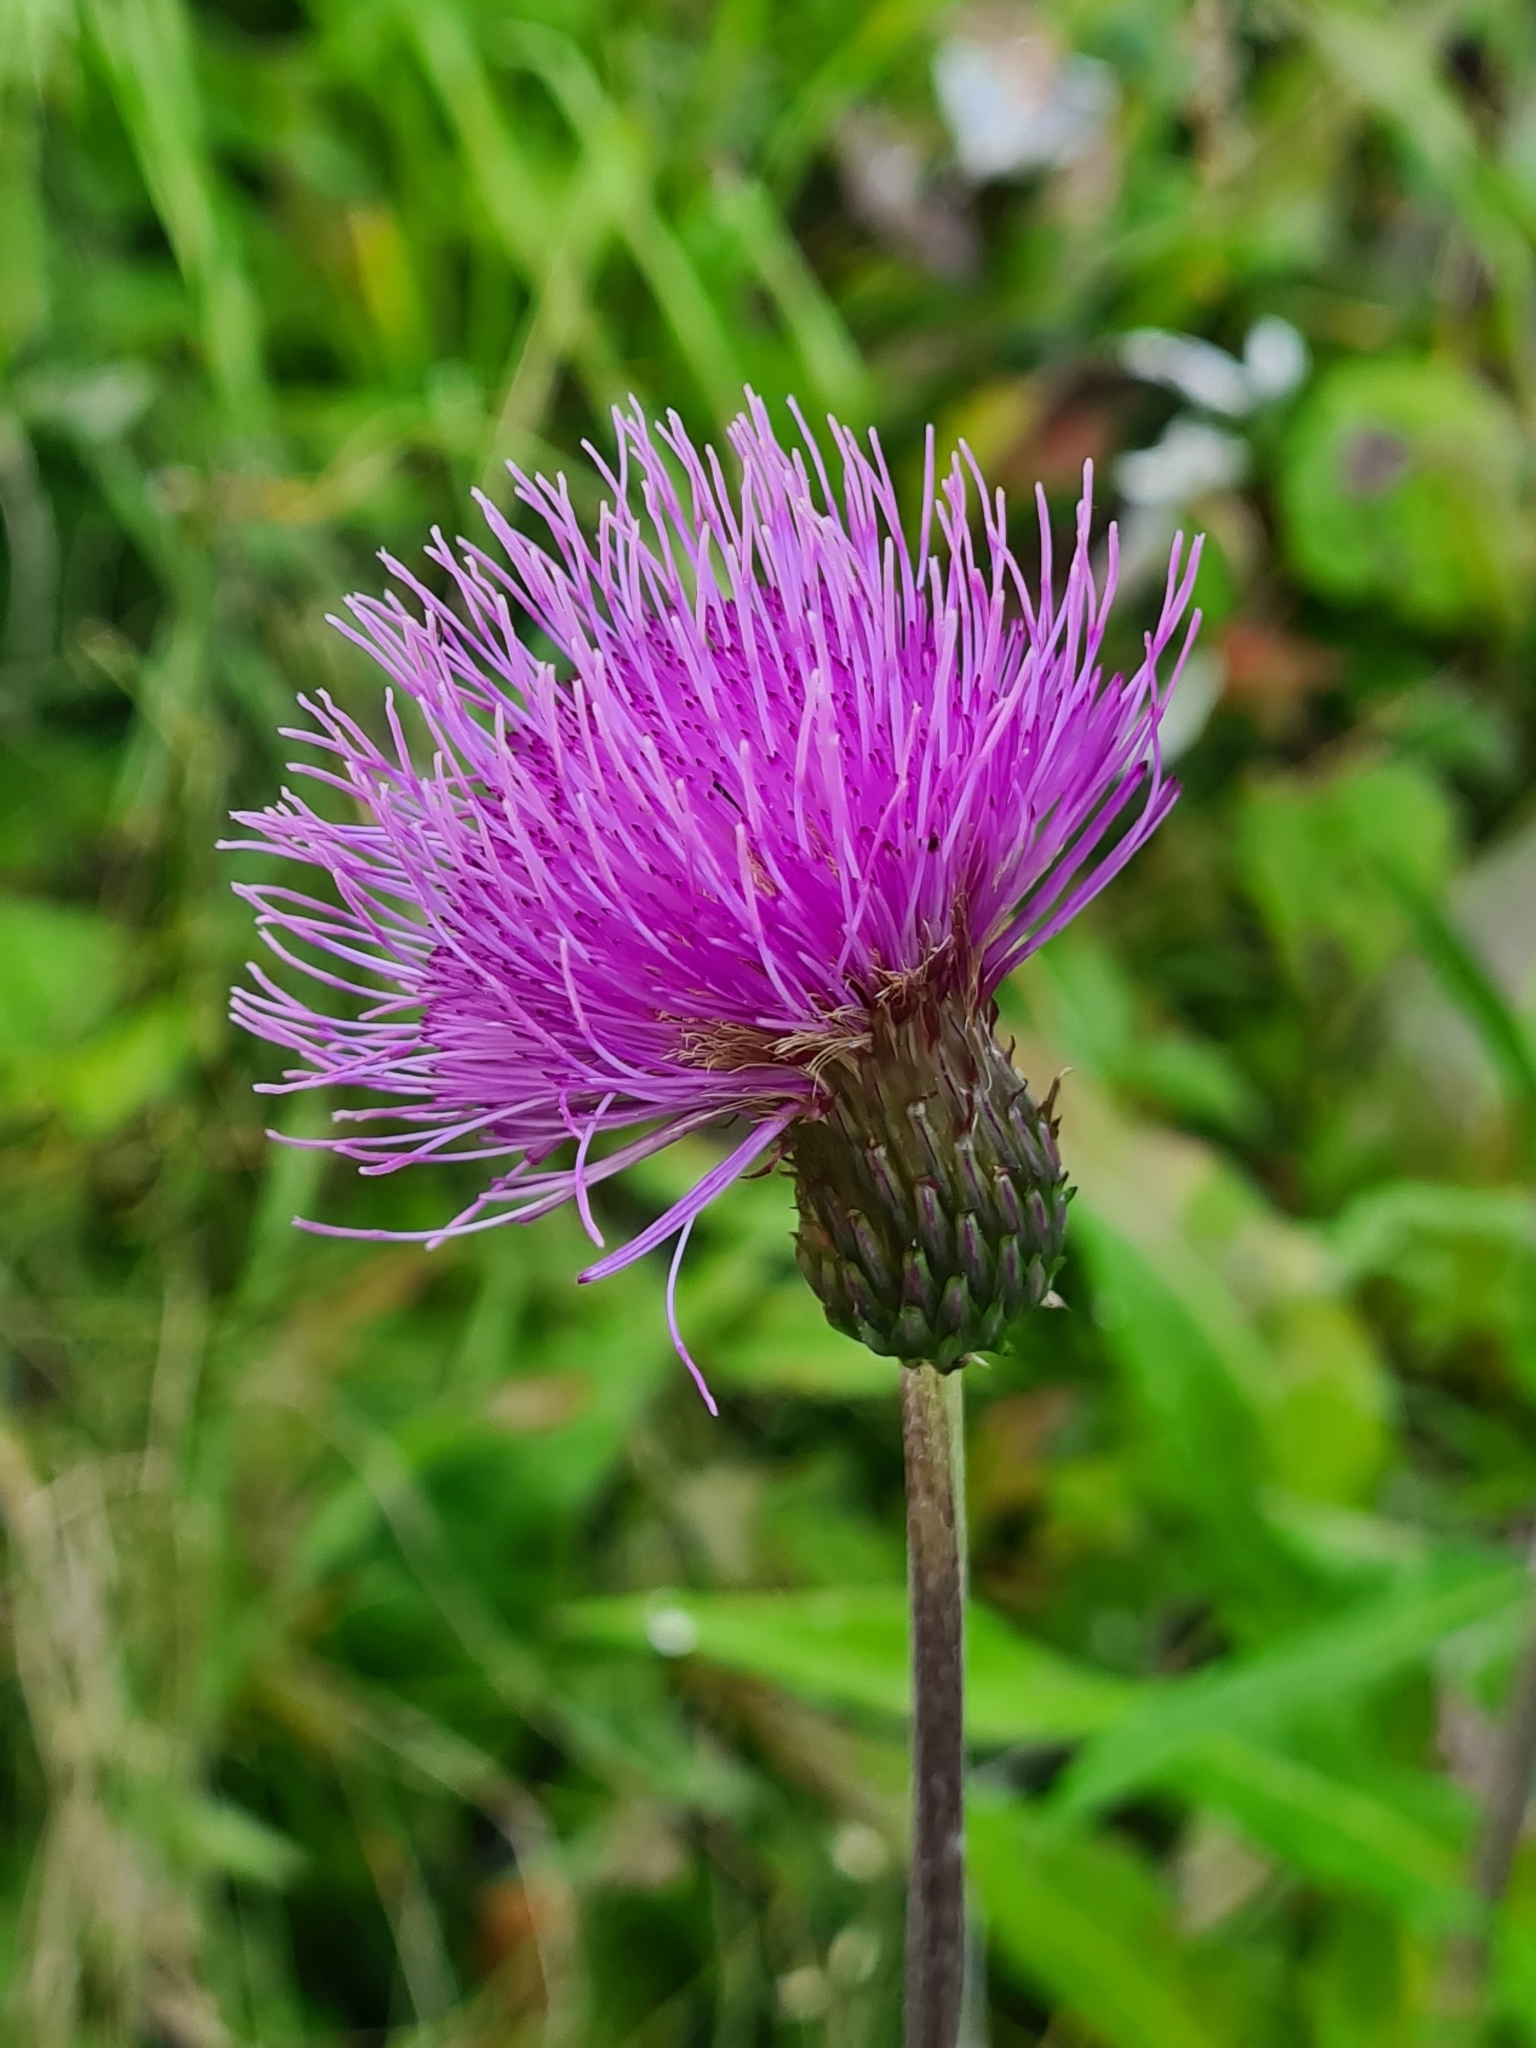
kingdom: Plantae
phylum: Tracheophyta
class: Magnoliopsida
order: Asterales
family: Asteraceae
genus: Cirsium
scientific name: Cirsium heterophyllum
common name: Melancholy thistle
